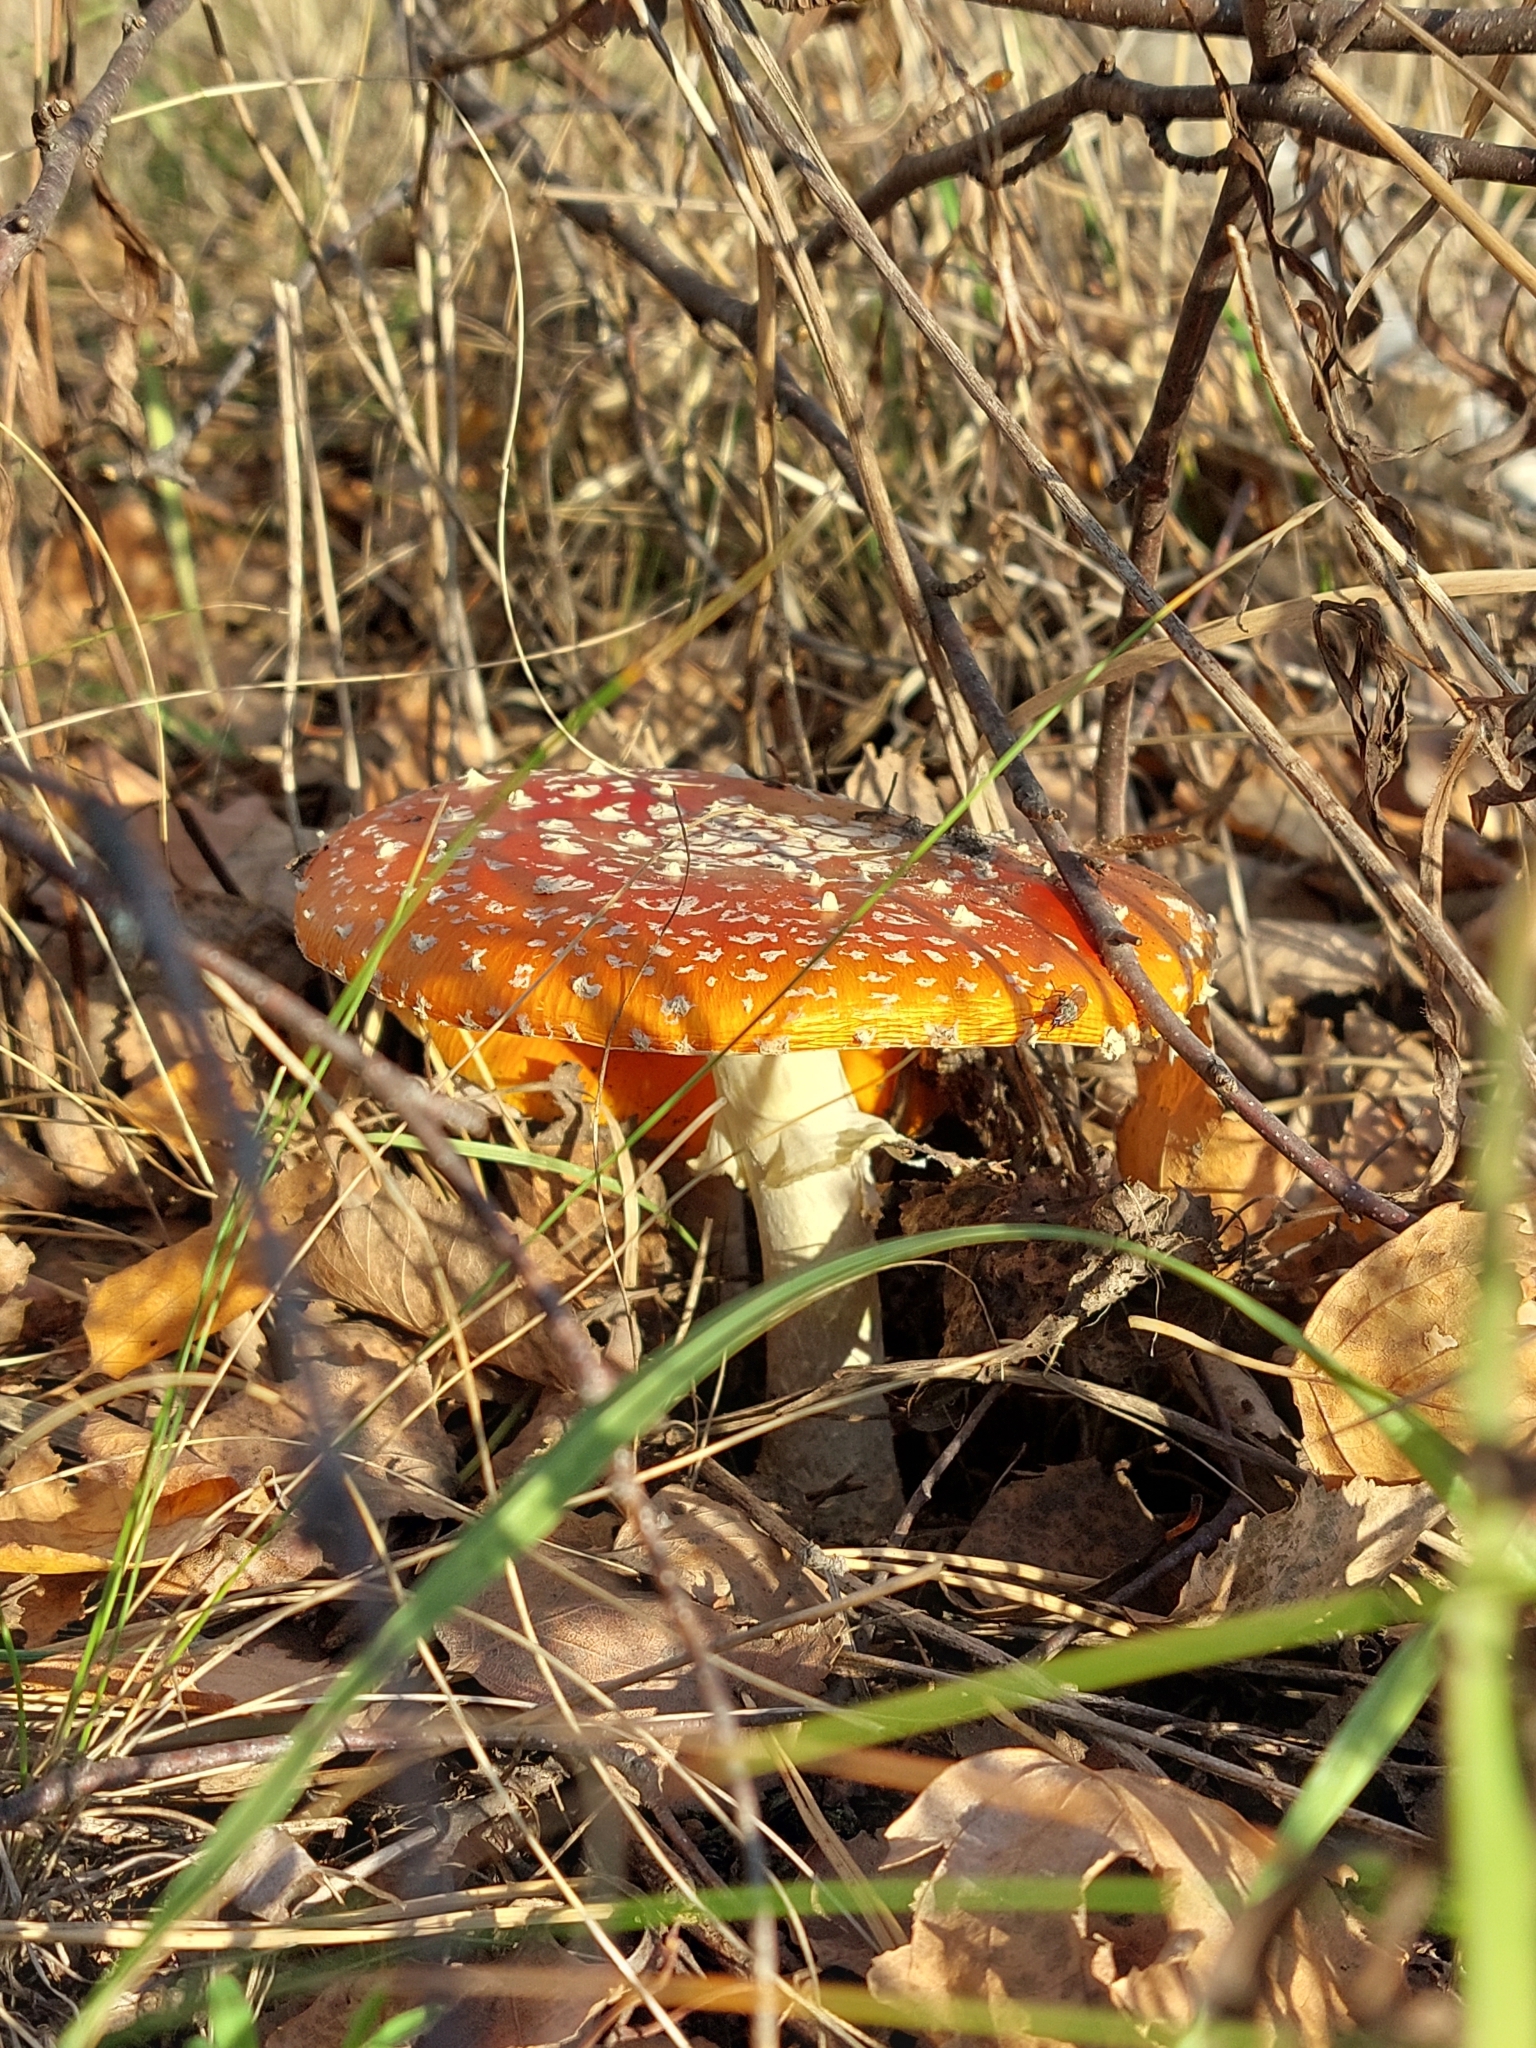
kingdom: Fungi
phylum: Basidiomycota
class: Agaricomycetes
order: Agaricales
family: Amanitaceae
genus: Amanita
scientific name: Amanita muscaria
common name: Fly agaric
